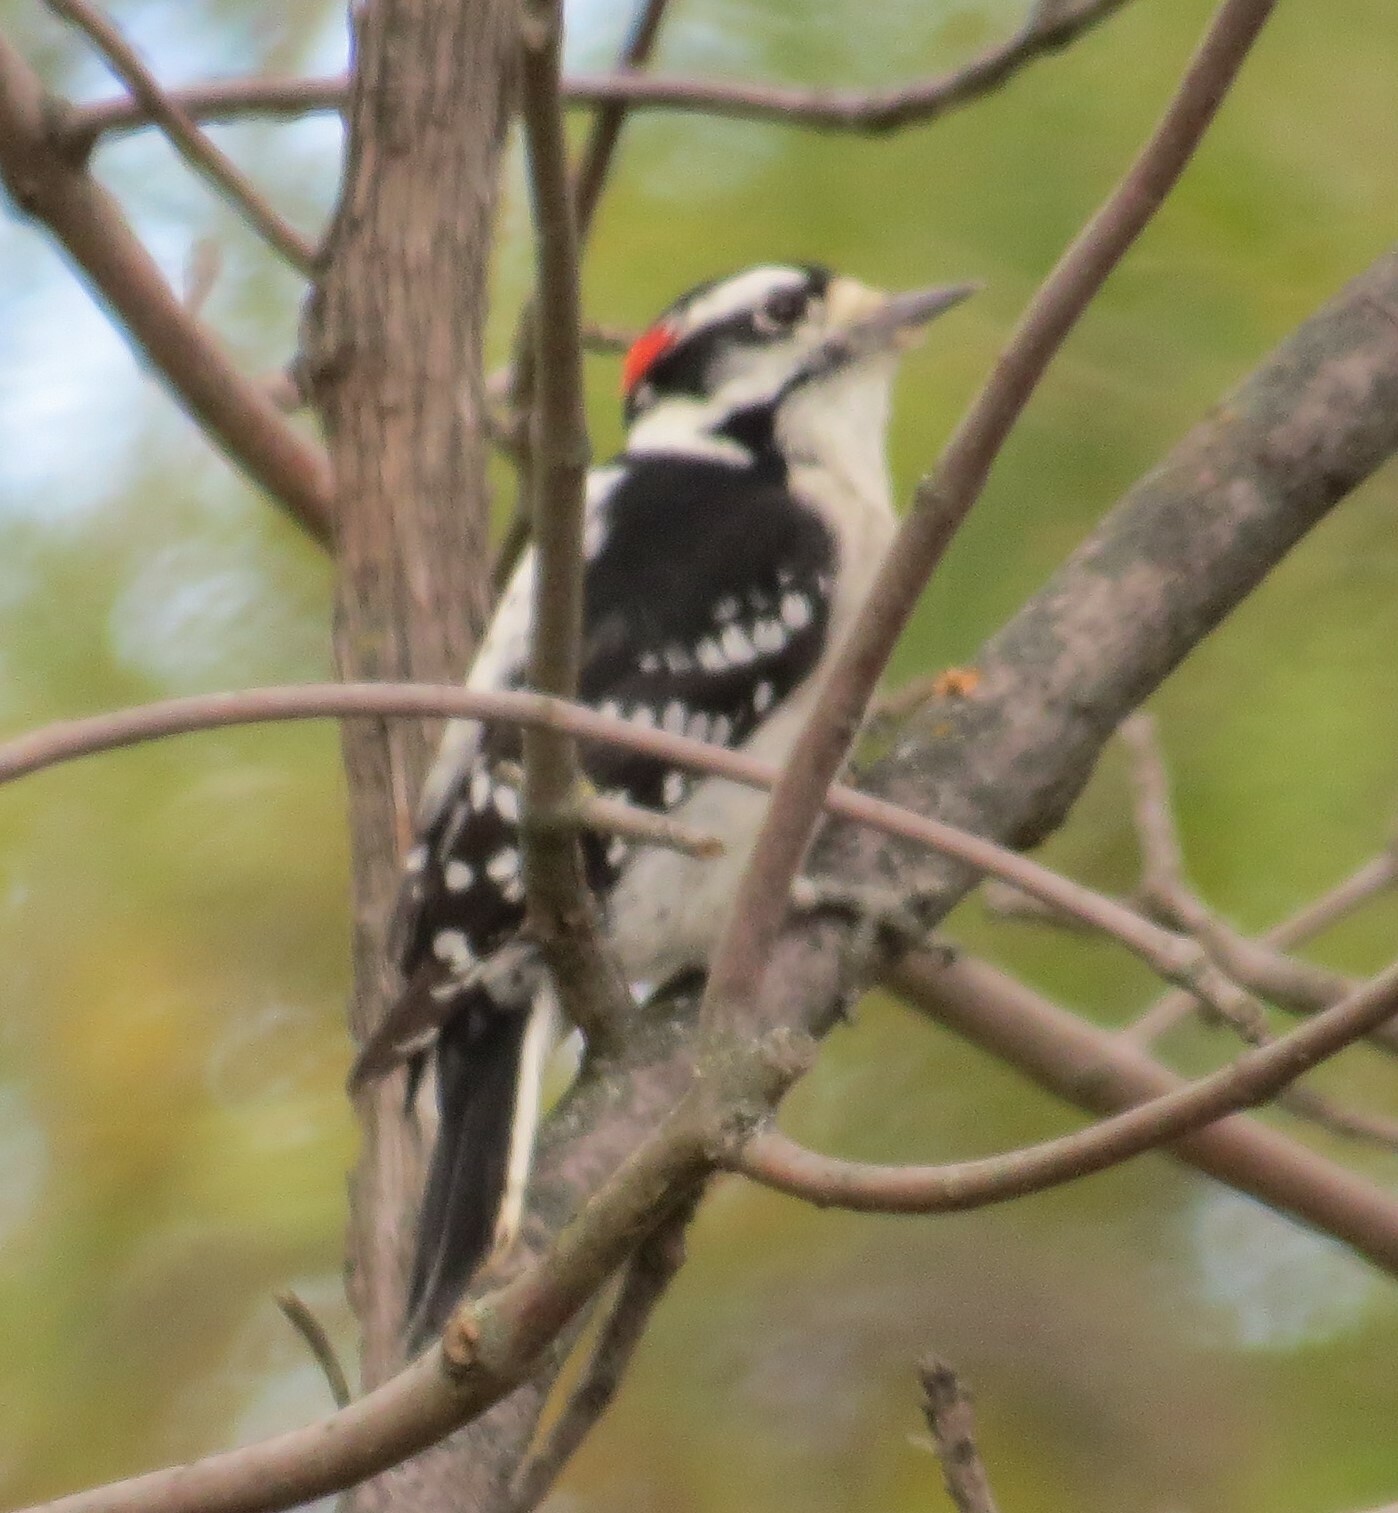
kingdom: Animalia
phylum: Chordata
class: Aves
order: Piciformes
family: Picidae
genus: Dryobates
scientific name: Dryobates pubescens
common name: Downy woodpecker
